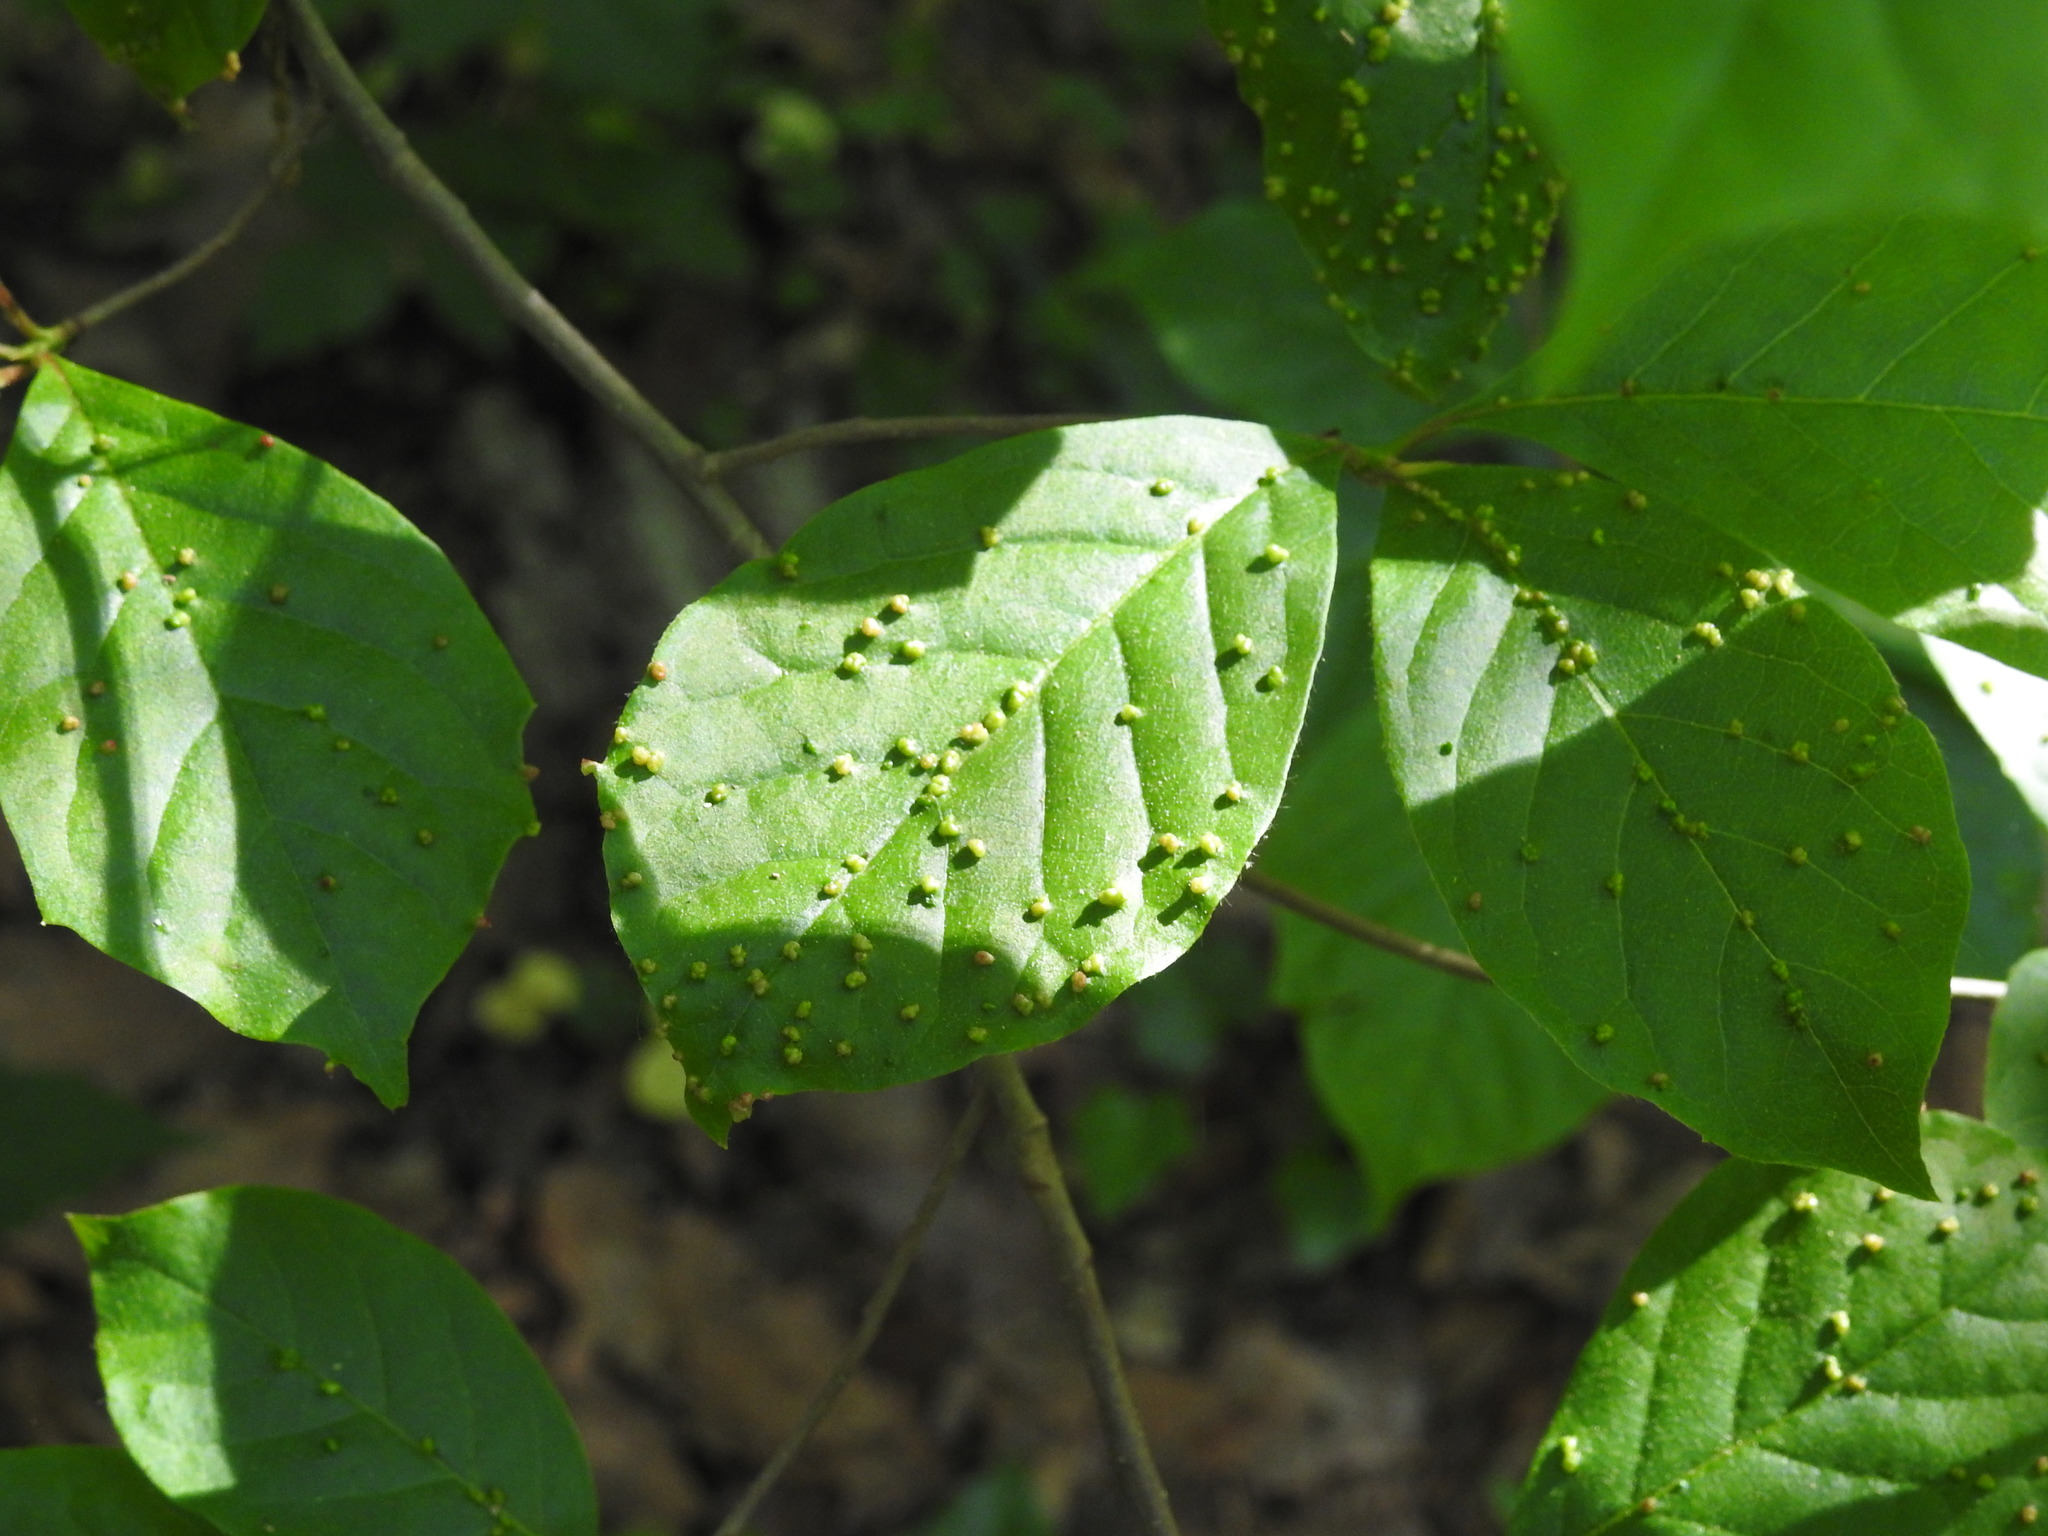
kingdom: Plantae
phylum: Tracheophyta
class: Magnoliopsida
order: Cornales
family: Nyssaceae
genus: Nyssa
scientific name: Nyssa sylvatica
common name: Black tupelo
